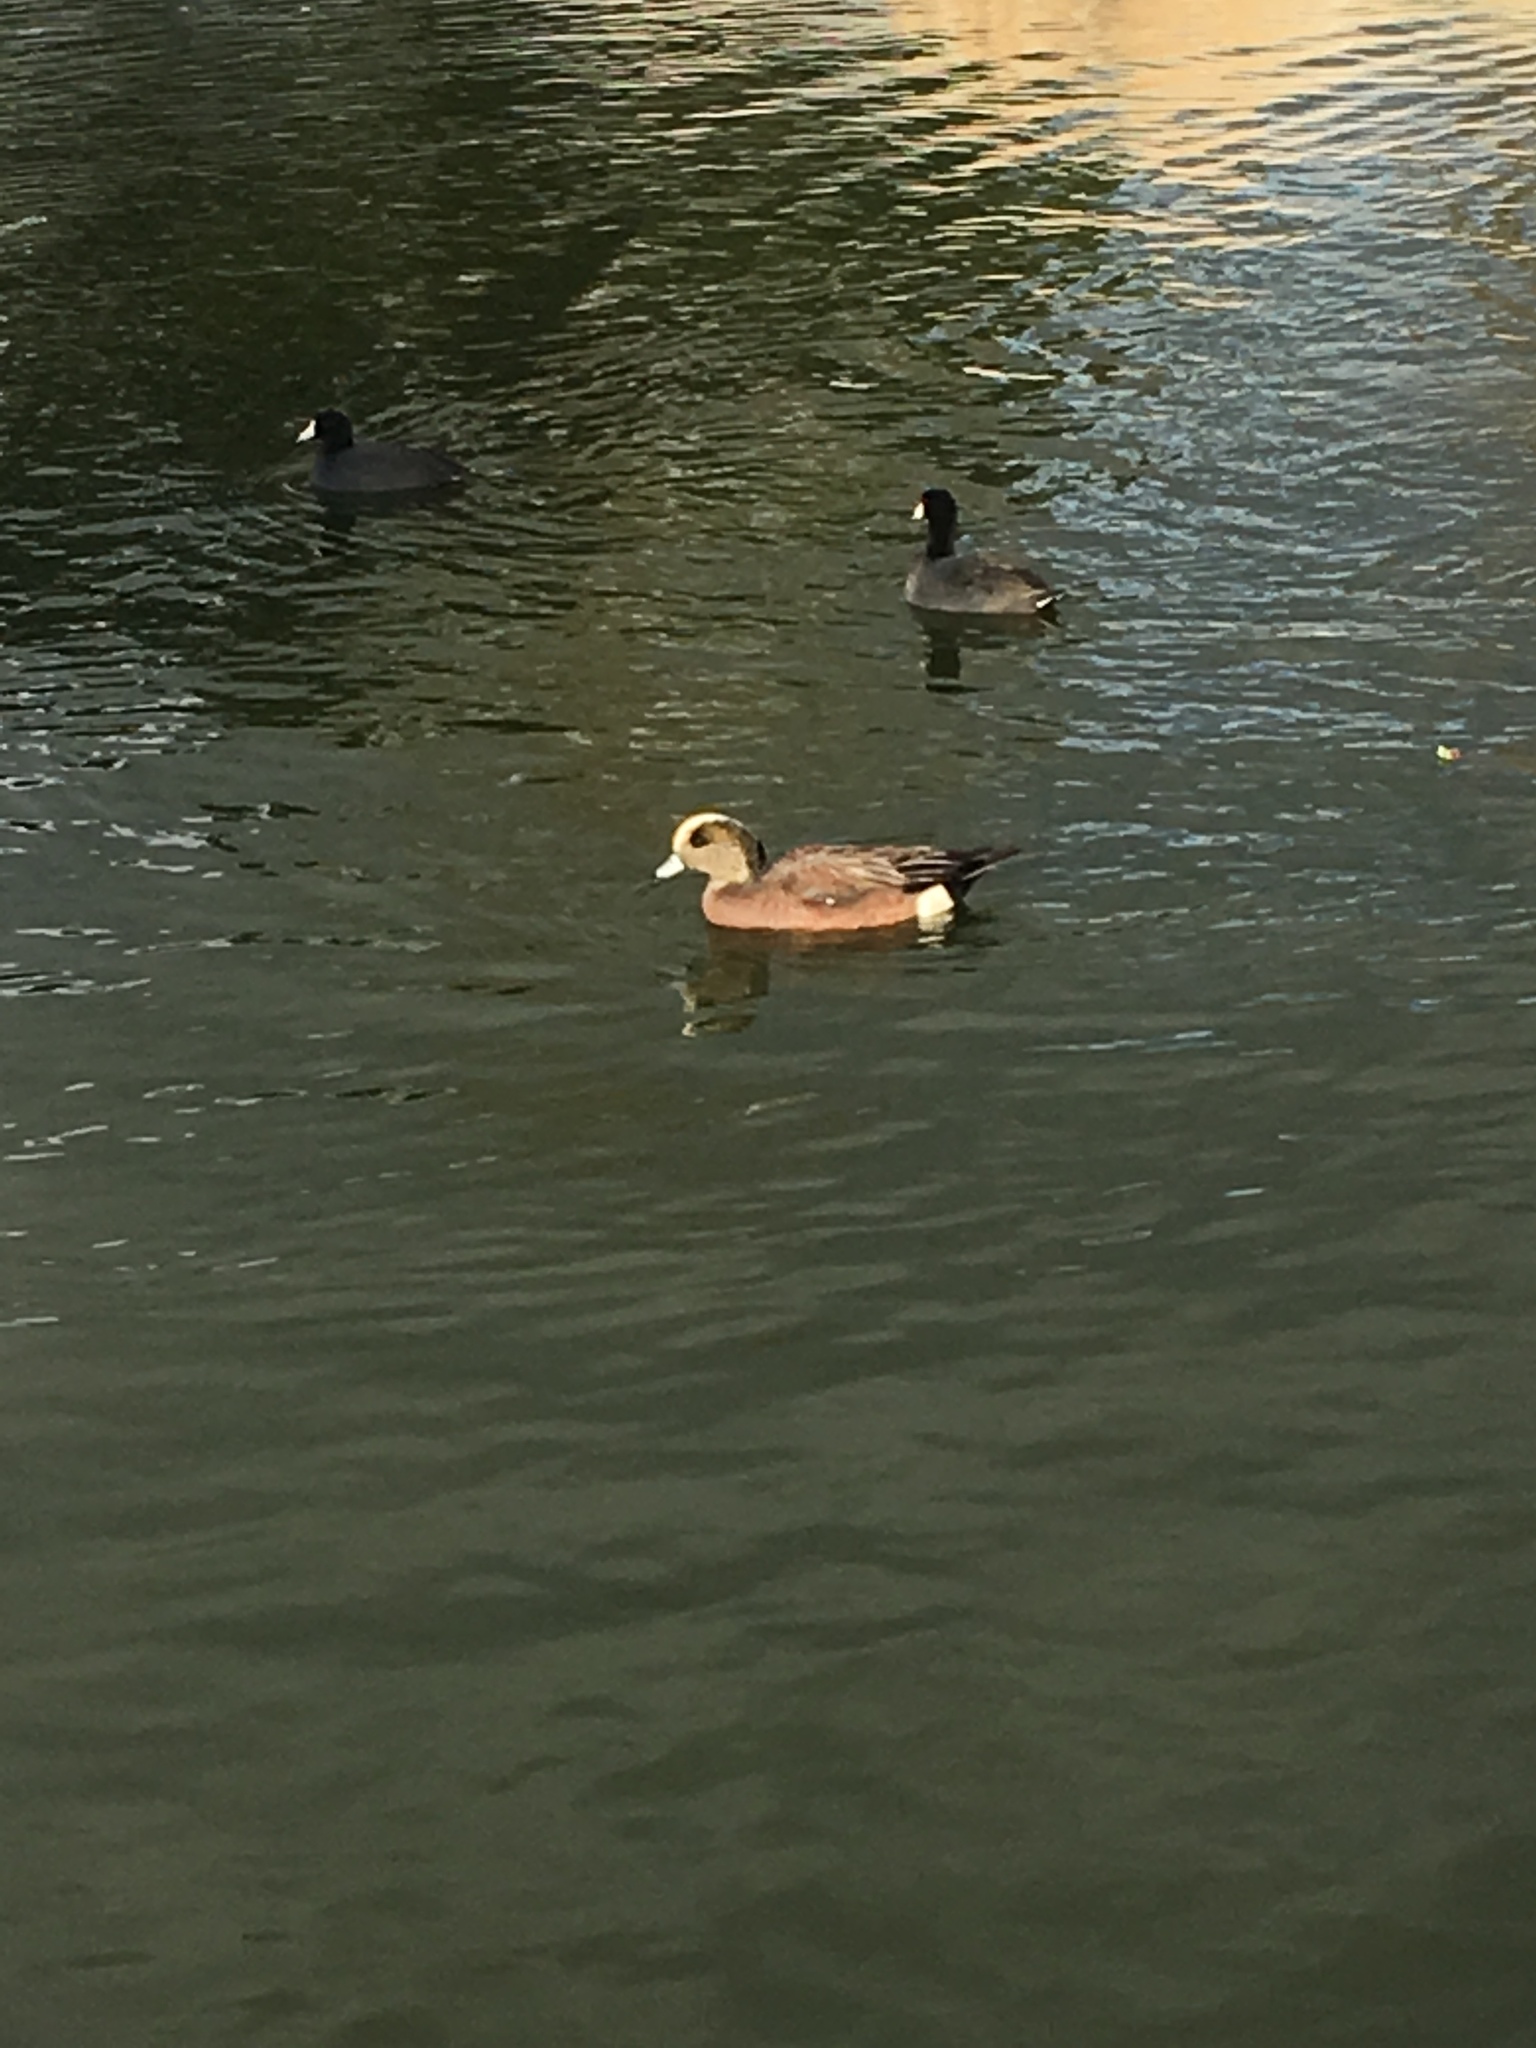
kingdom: Animalia
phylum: Chordata
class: Aves
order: Anseriformes
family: Anatidae
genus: Mareca
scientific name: Mareca americana
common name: American wigeon
